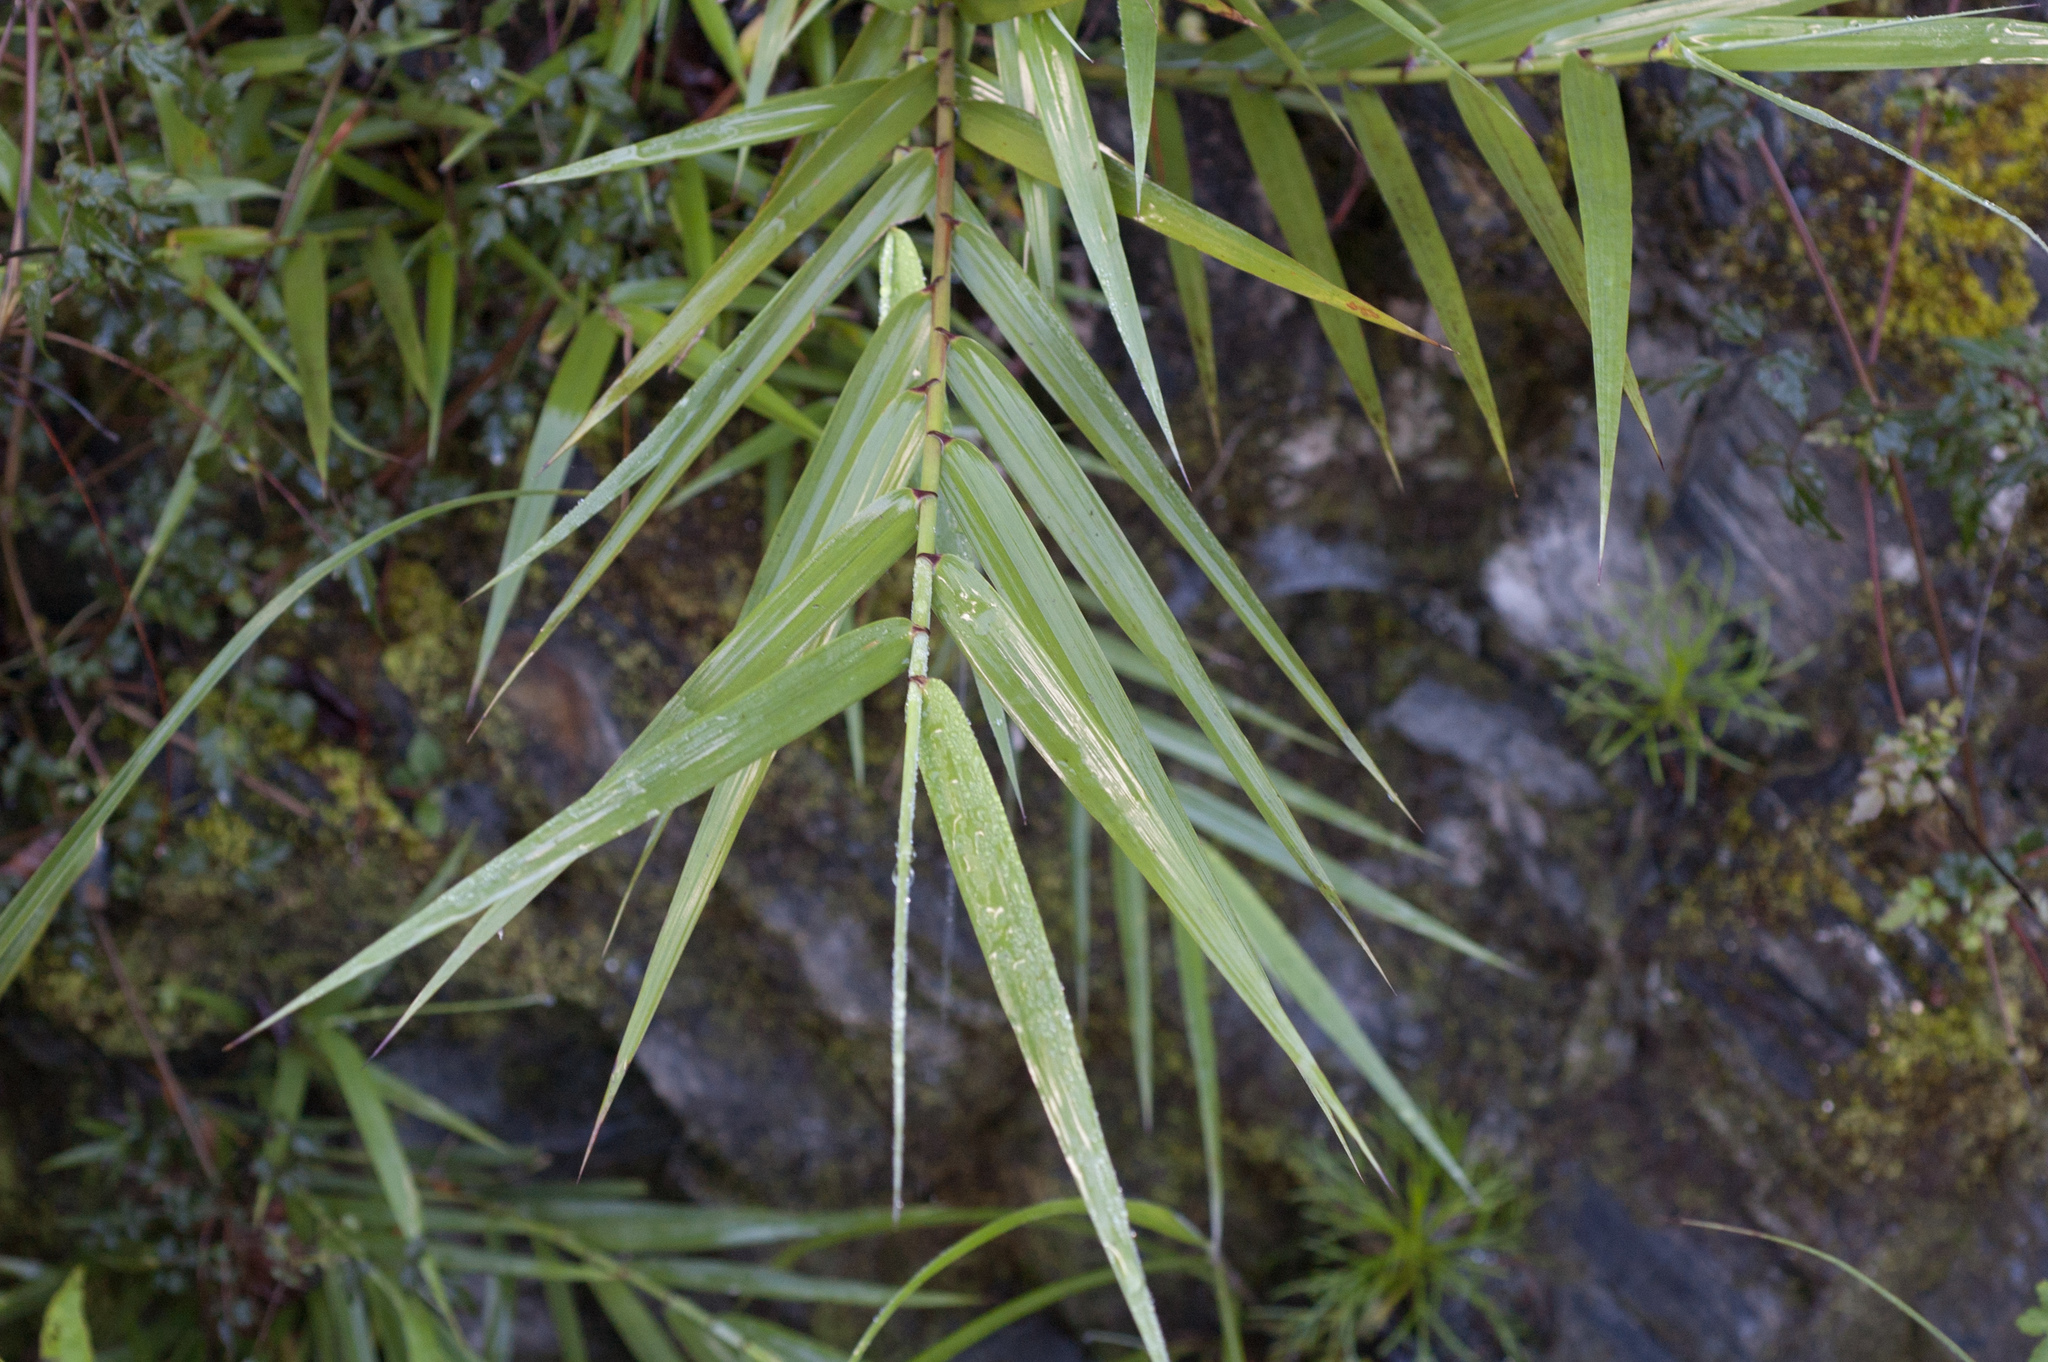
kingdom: Plantae
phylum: Tracheophyta
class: Liliopsida
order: Poales
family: Poaceae
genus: Arundo
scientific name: Arundo formosana
